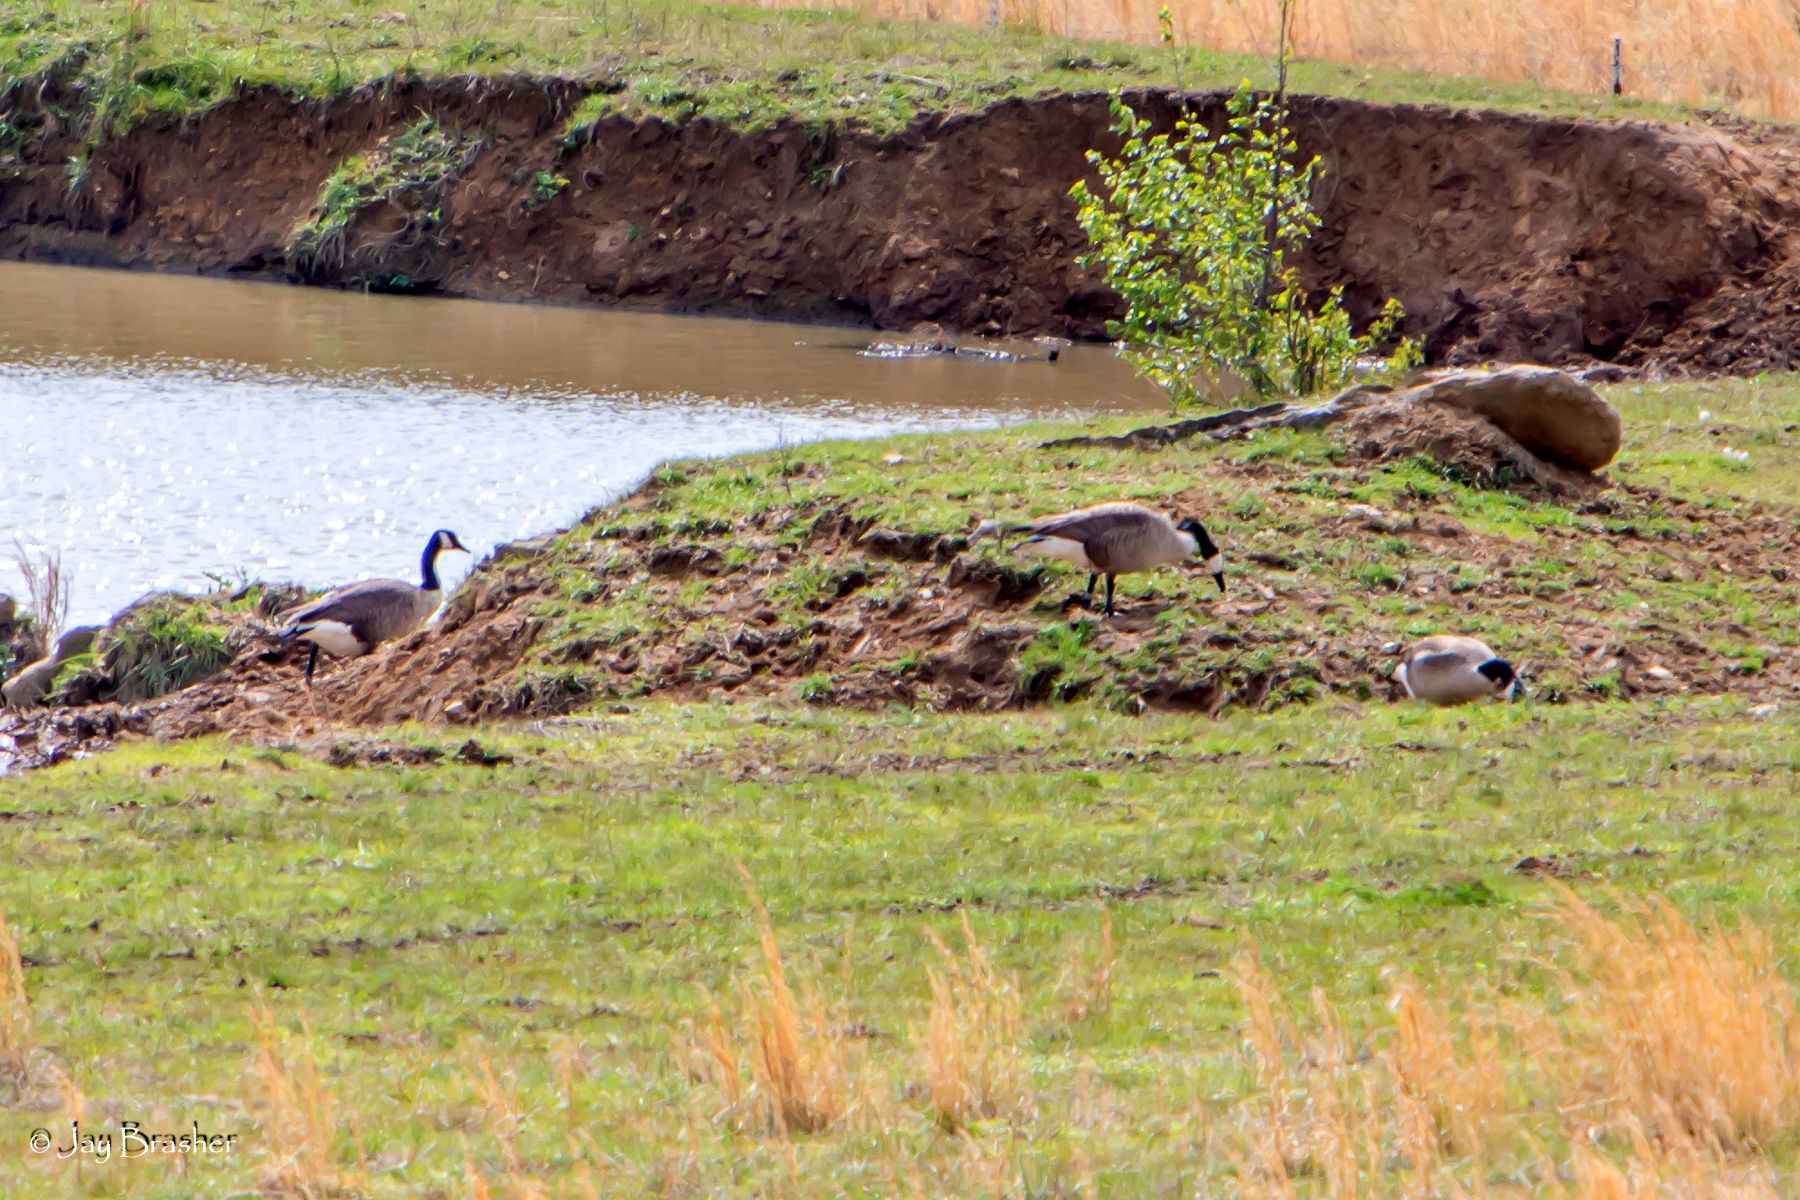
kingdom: Animalia
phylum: Chordata
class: Aves
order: Anseriformes
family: Anatidae
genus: Branta
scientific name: Branta canadensis
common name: Canada goose
